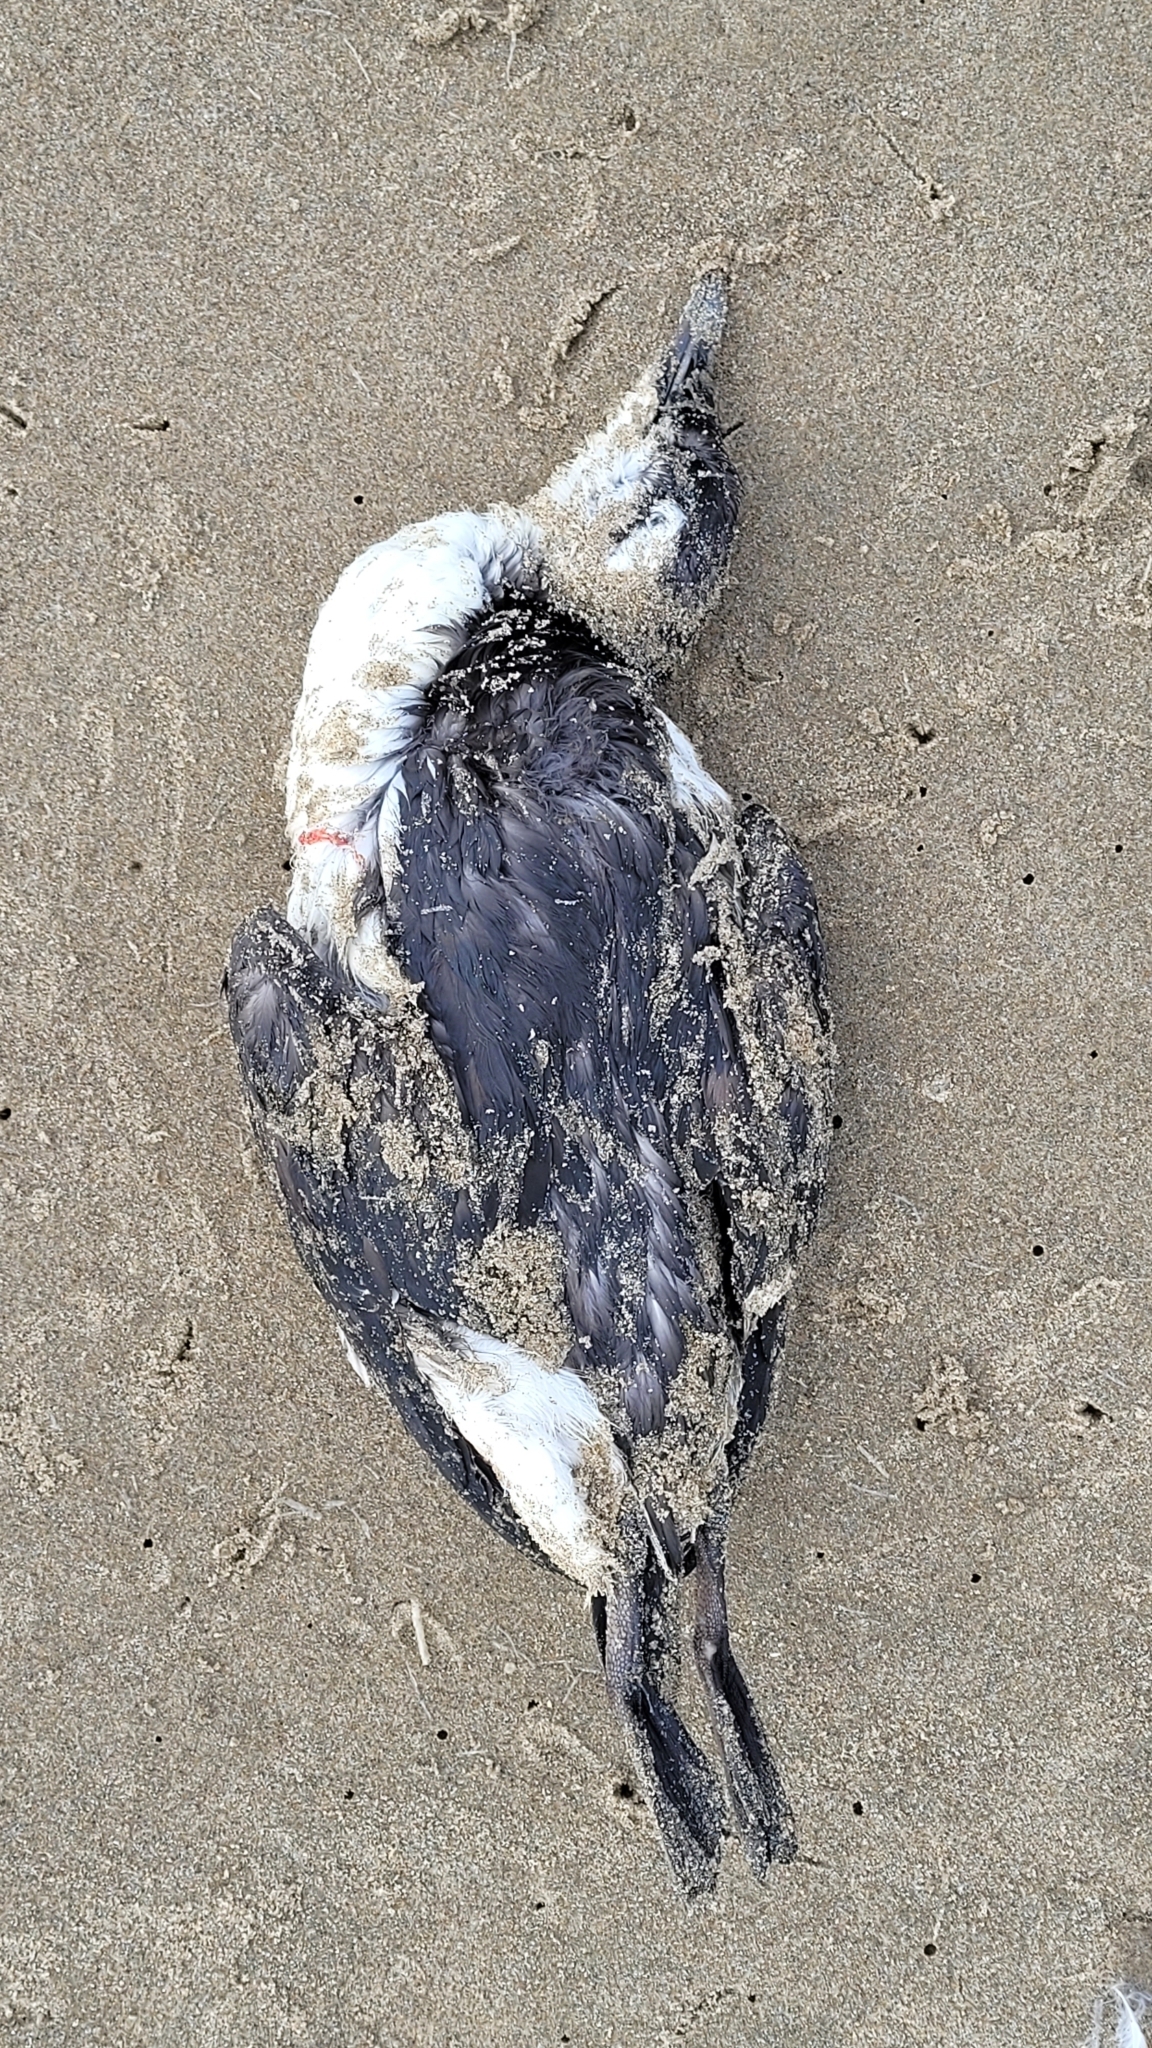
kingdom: Animalia
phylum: Chordata
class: Aves
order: Charadriiformes
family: Alcidae
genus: Uria
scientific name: Uria aalge
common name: Common murre
